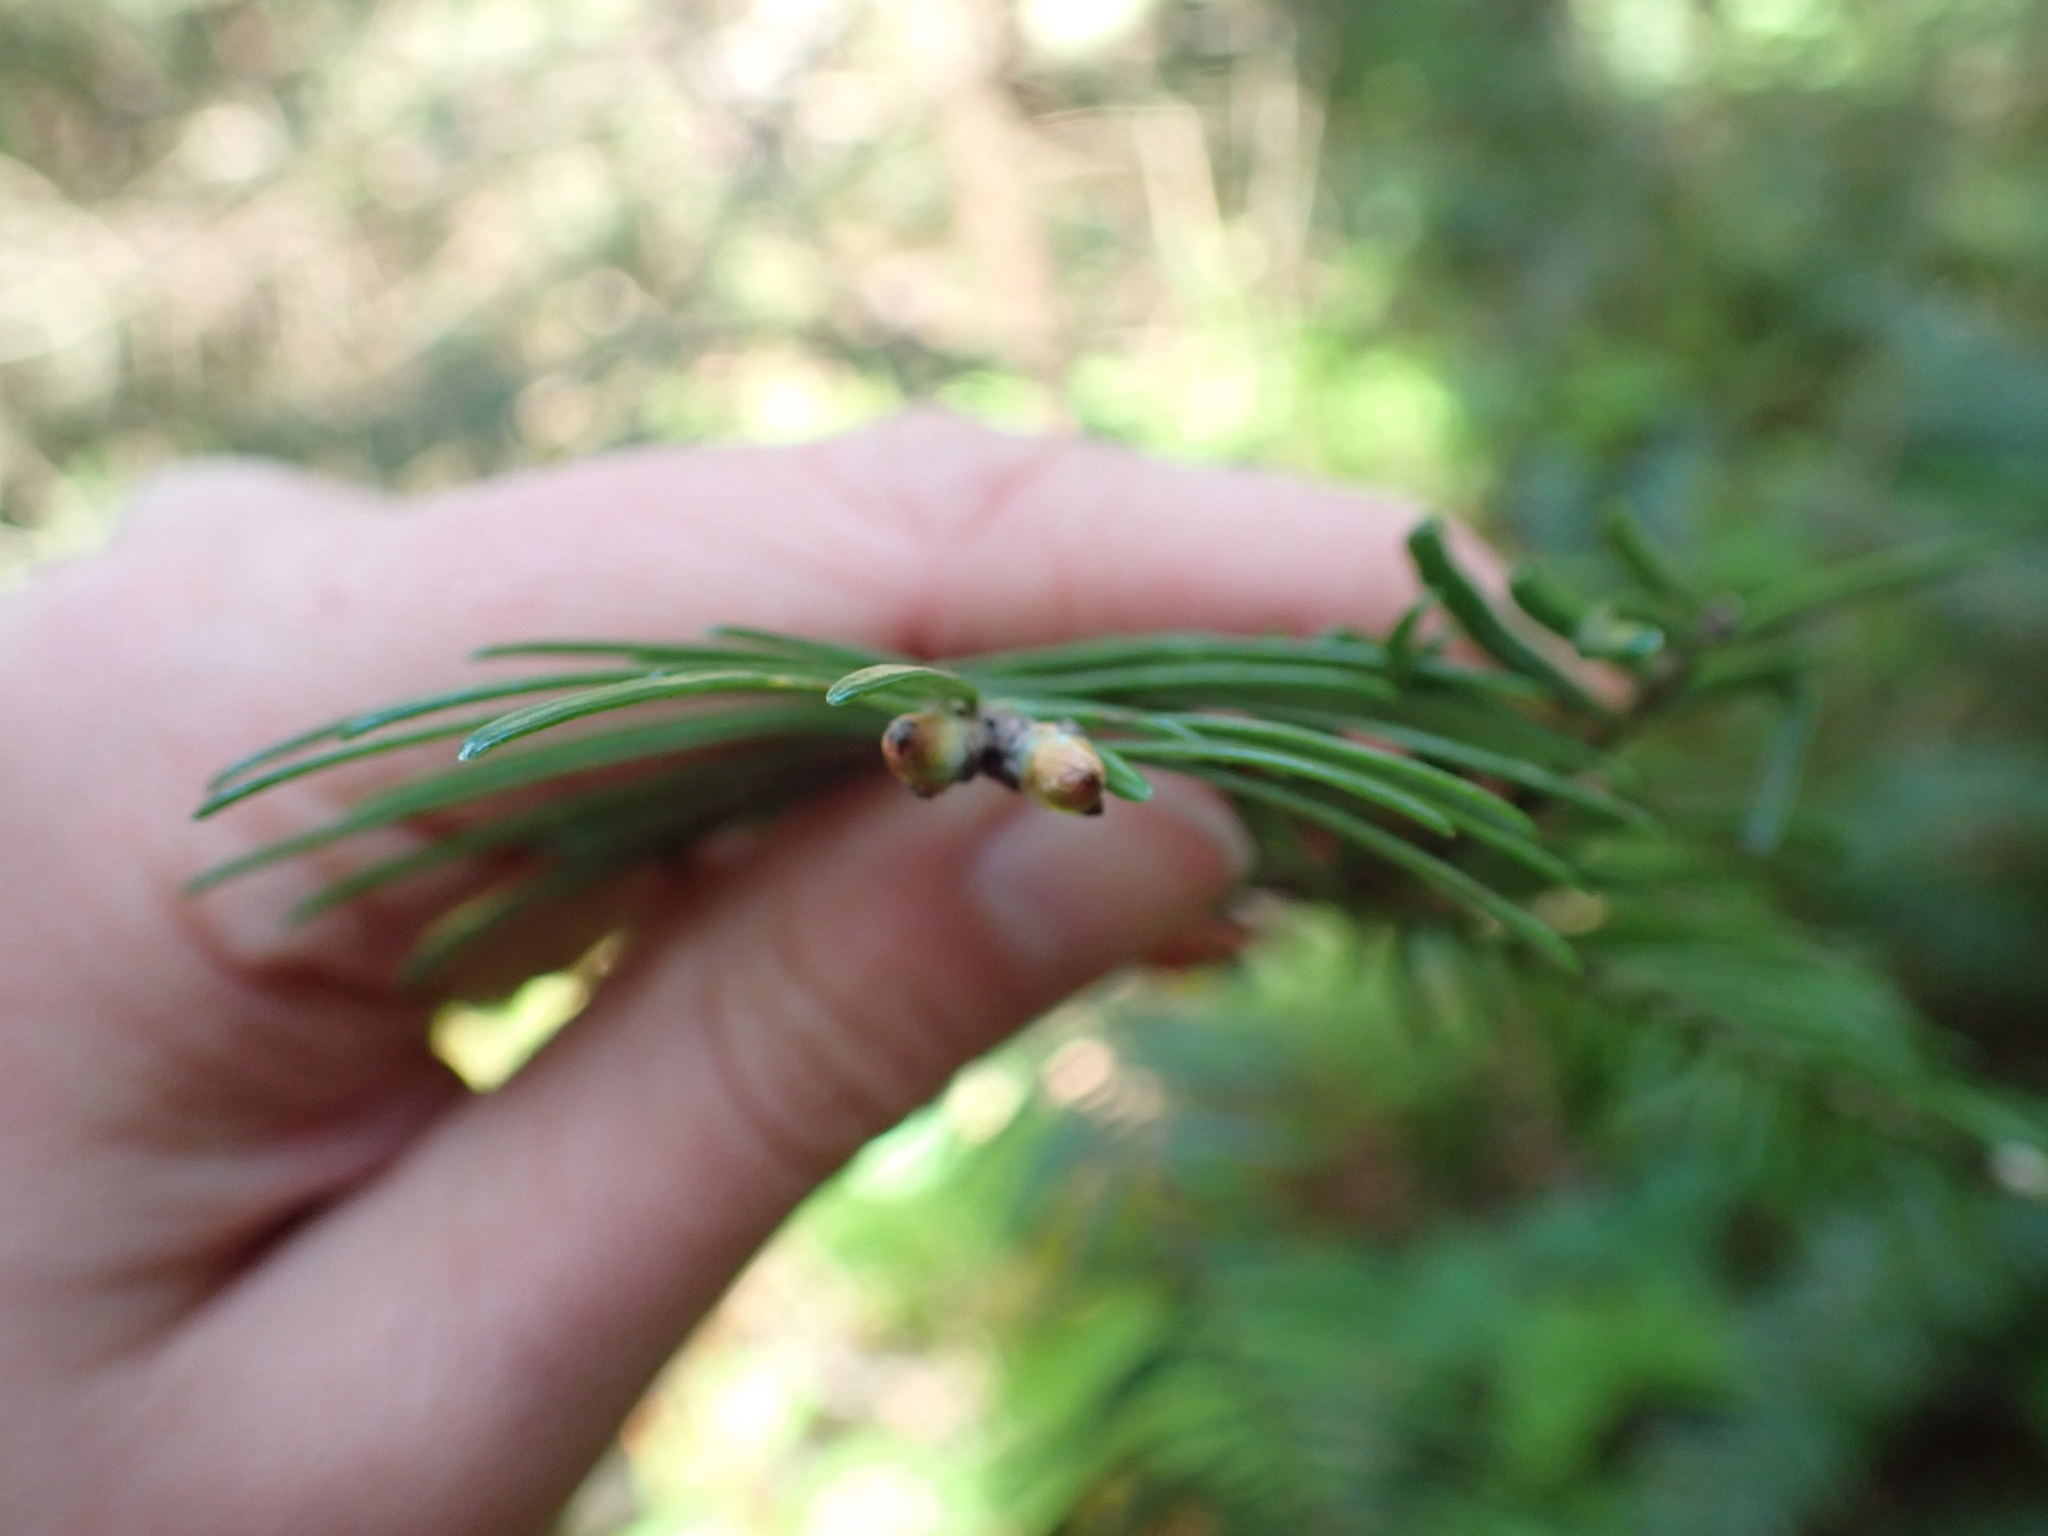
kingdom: Plantae
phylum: Tracheophyta
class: Pinopsida
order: Pinales
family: Pinaceae
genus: Abies
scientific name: Abies grandis
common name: Giant fir
